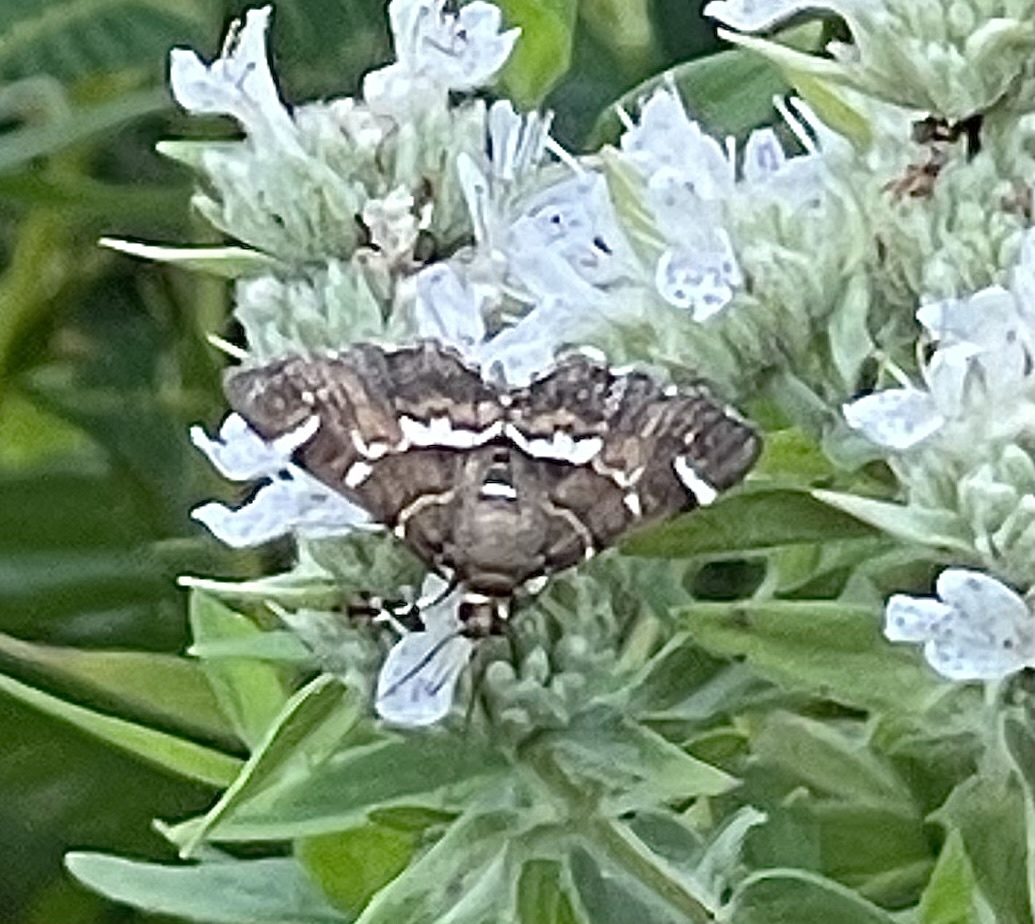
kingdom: Animalia
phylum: Arthropoda
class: Insecta
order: Lepidoptera
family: Crambidae
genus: Hymenia
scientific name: Hymenia perspectalis
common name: Spotted beet webworm
